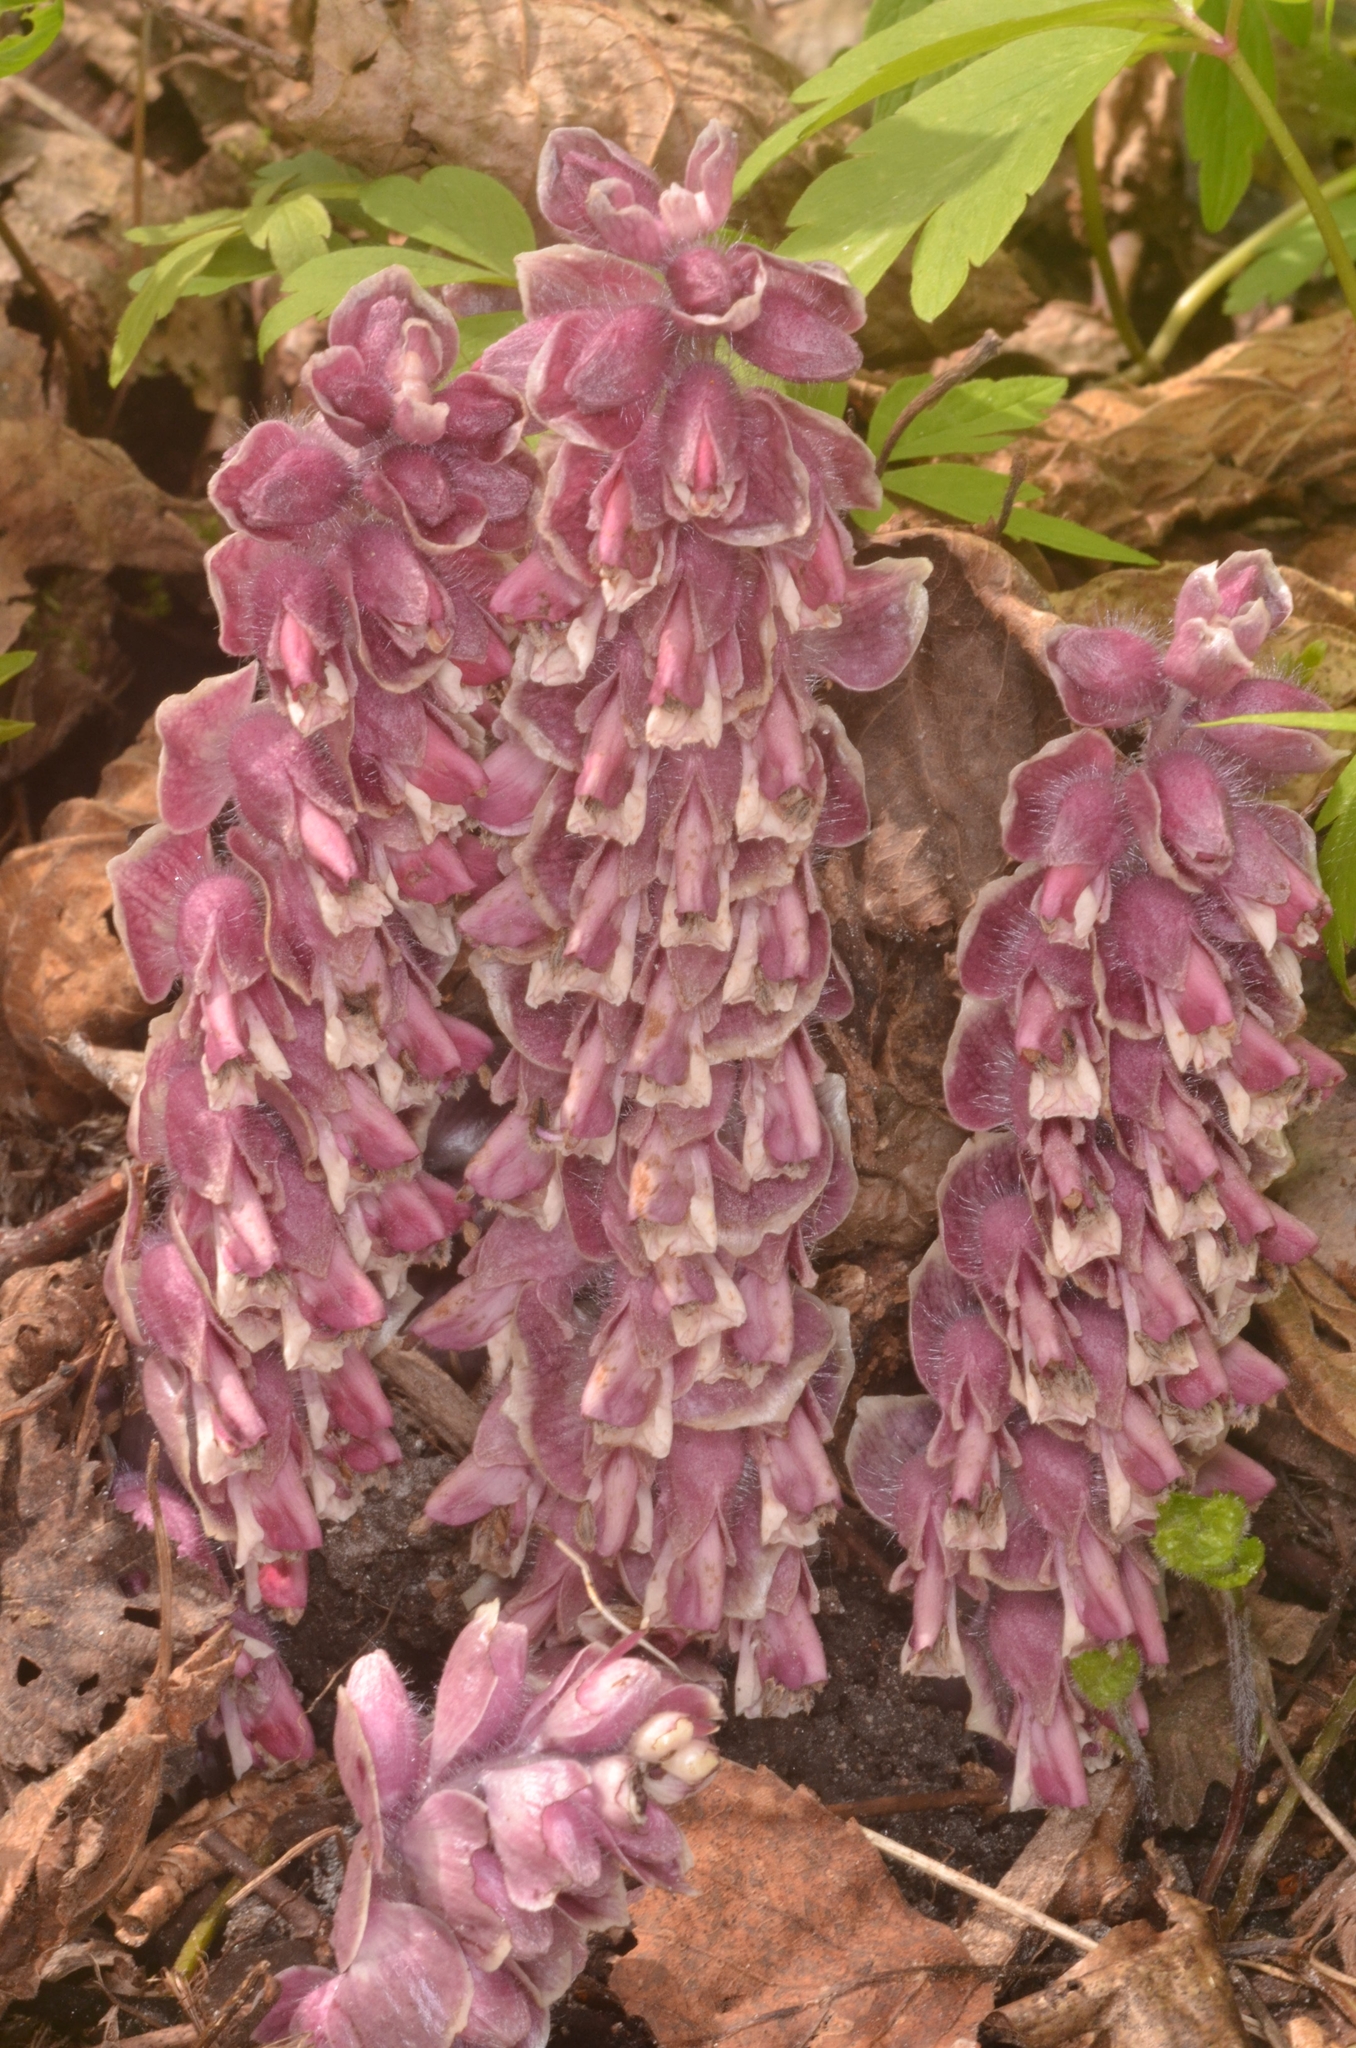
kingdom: Plantae
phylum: Tracheophyta
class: Magnoliopsida
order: Lamiales
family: Orobanchaceae
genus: Lathraea
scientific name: Lathraea squamaria
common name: Toothwort
